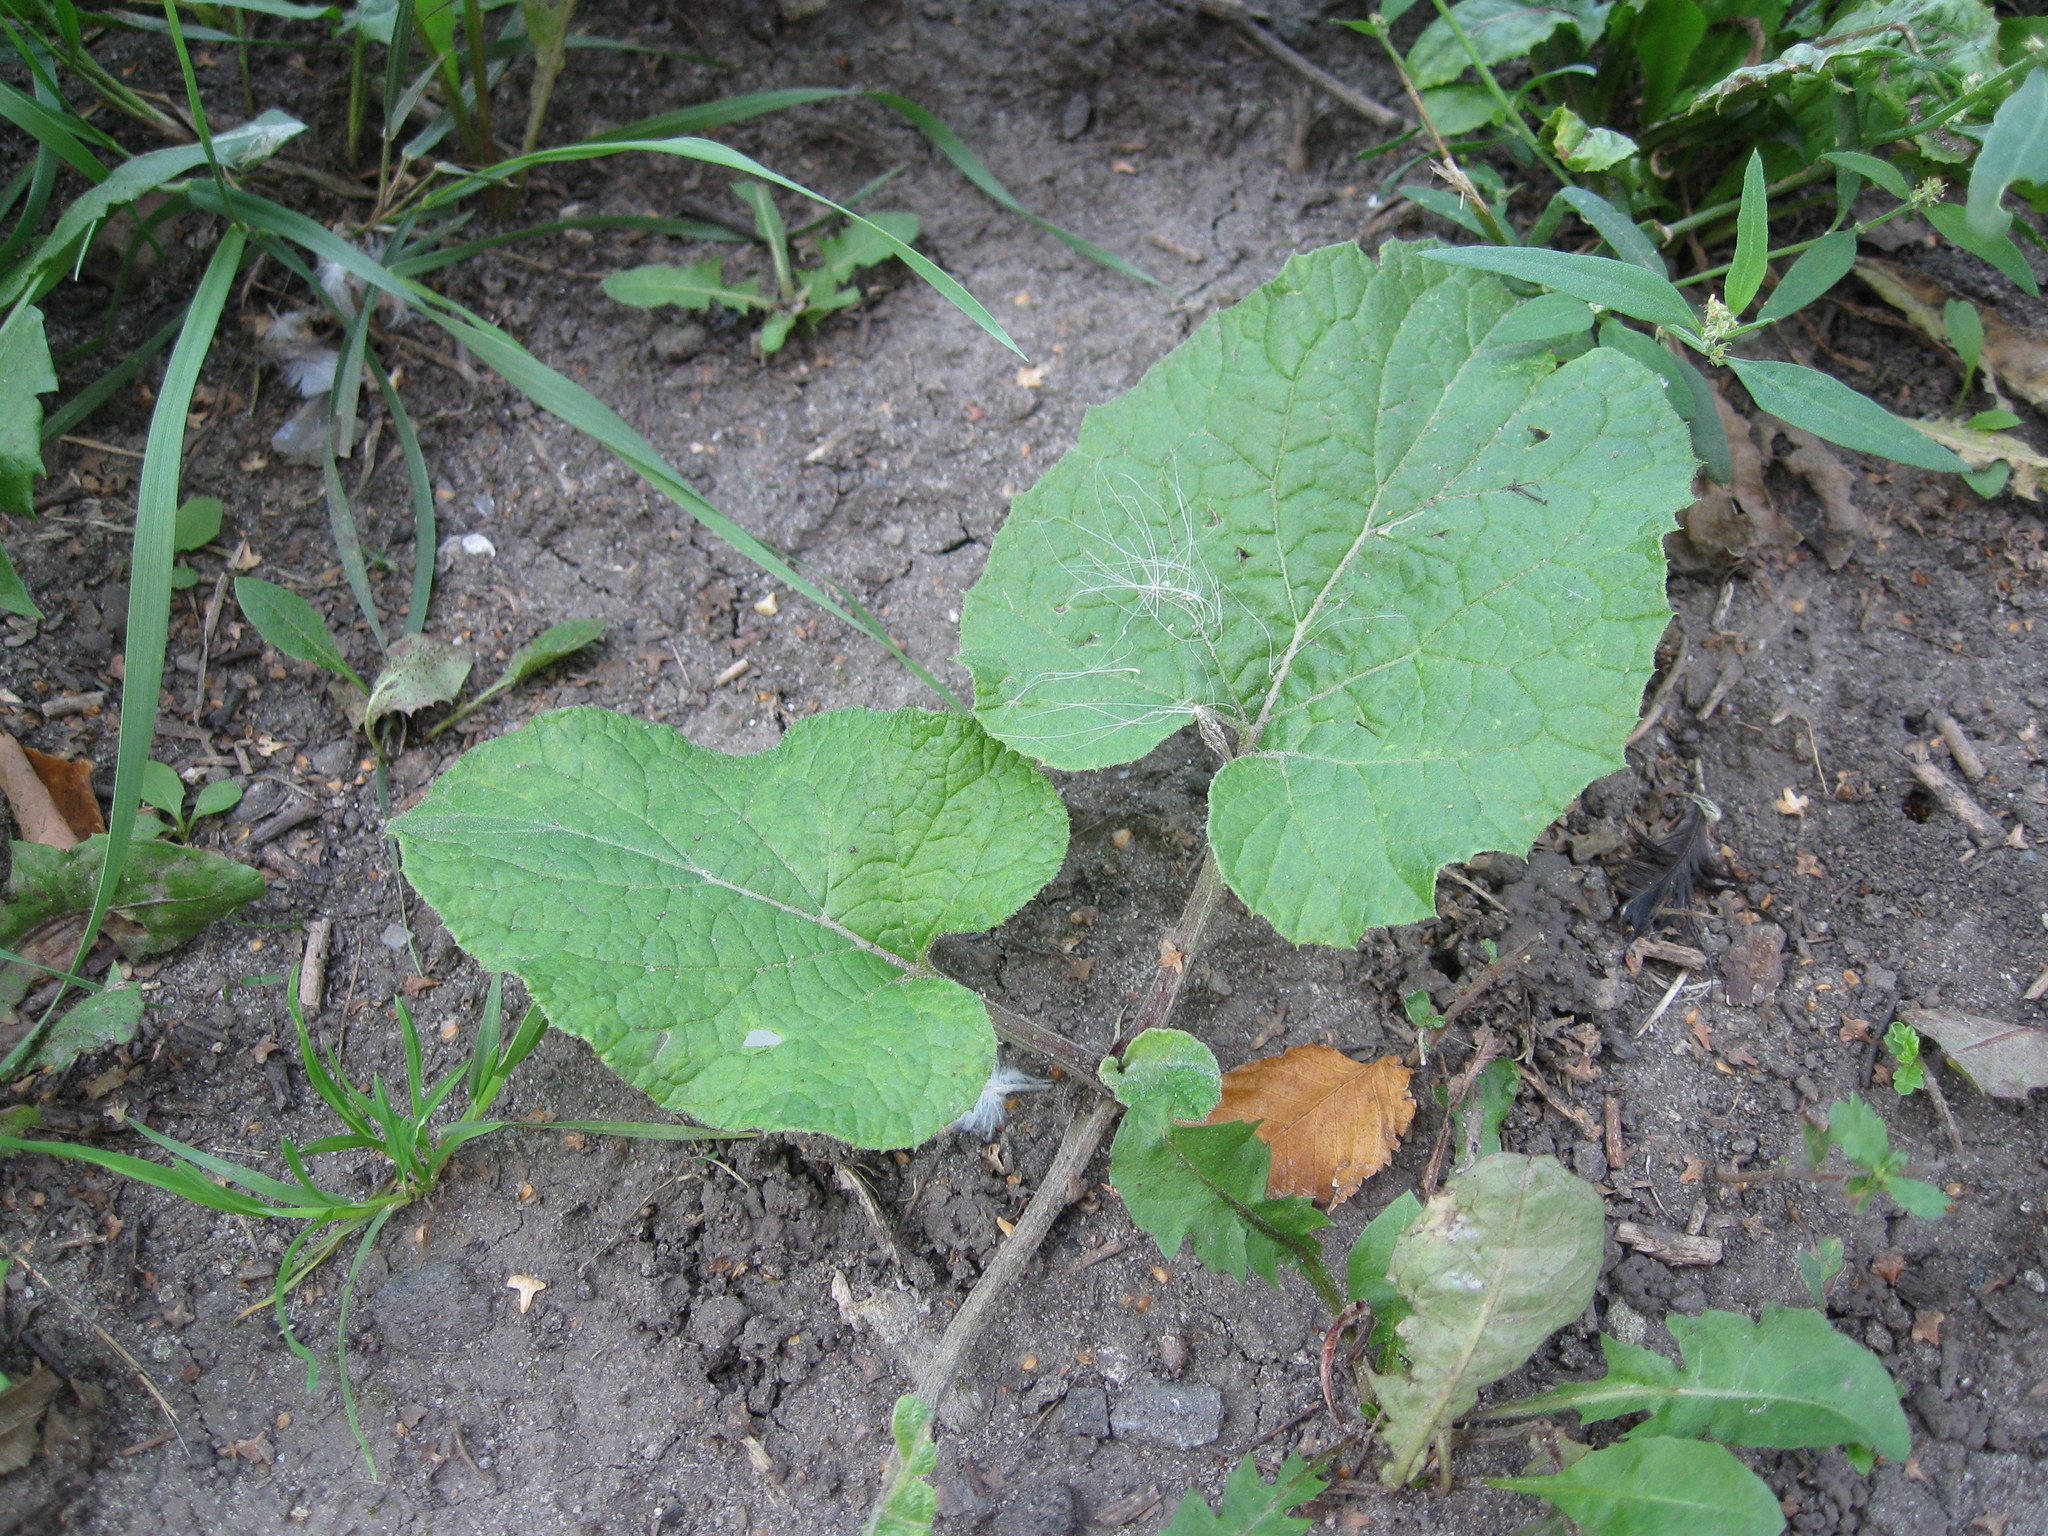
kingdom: Plantae
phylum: Tracheophyta
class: Magnoliopsida
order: Asterales
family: Asteraceae
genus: Arctium
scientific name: Arctium
